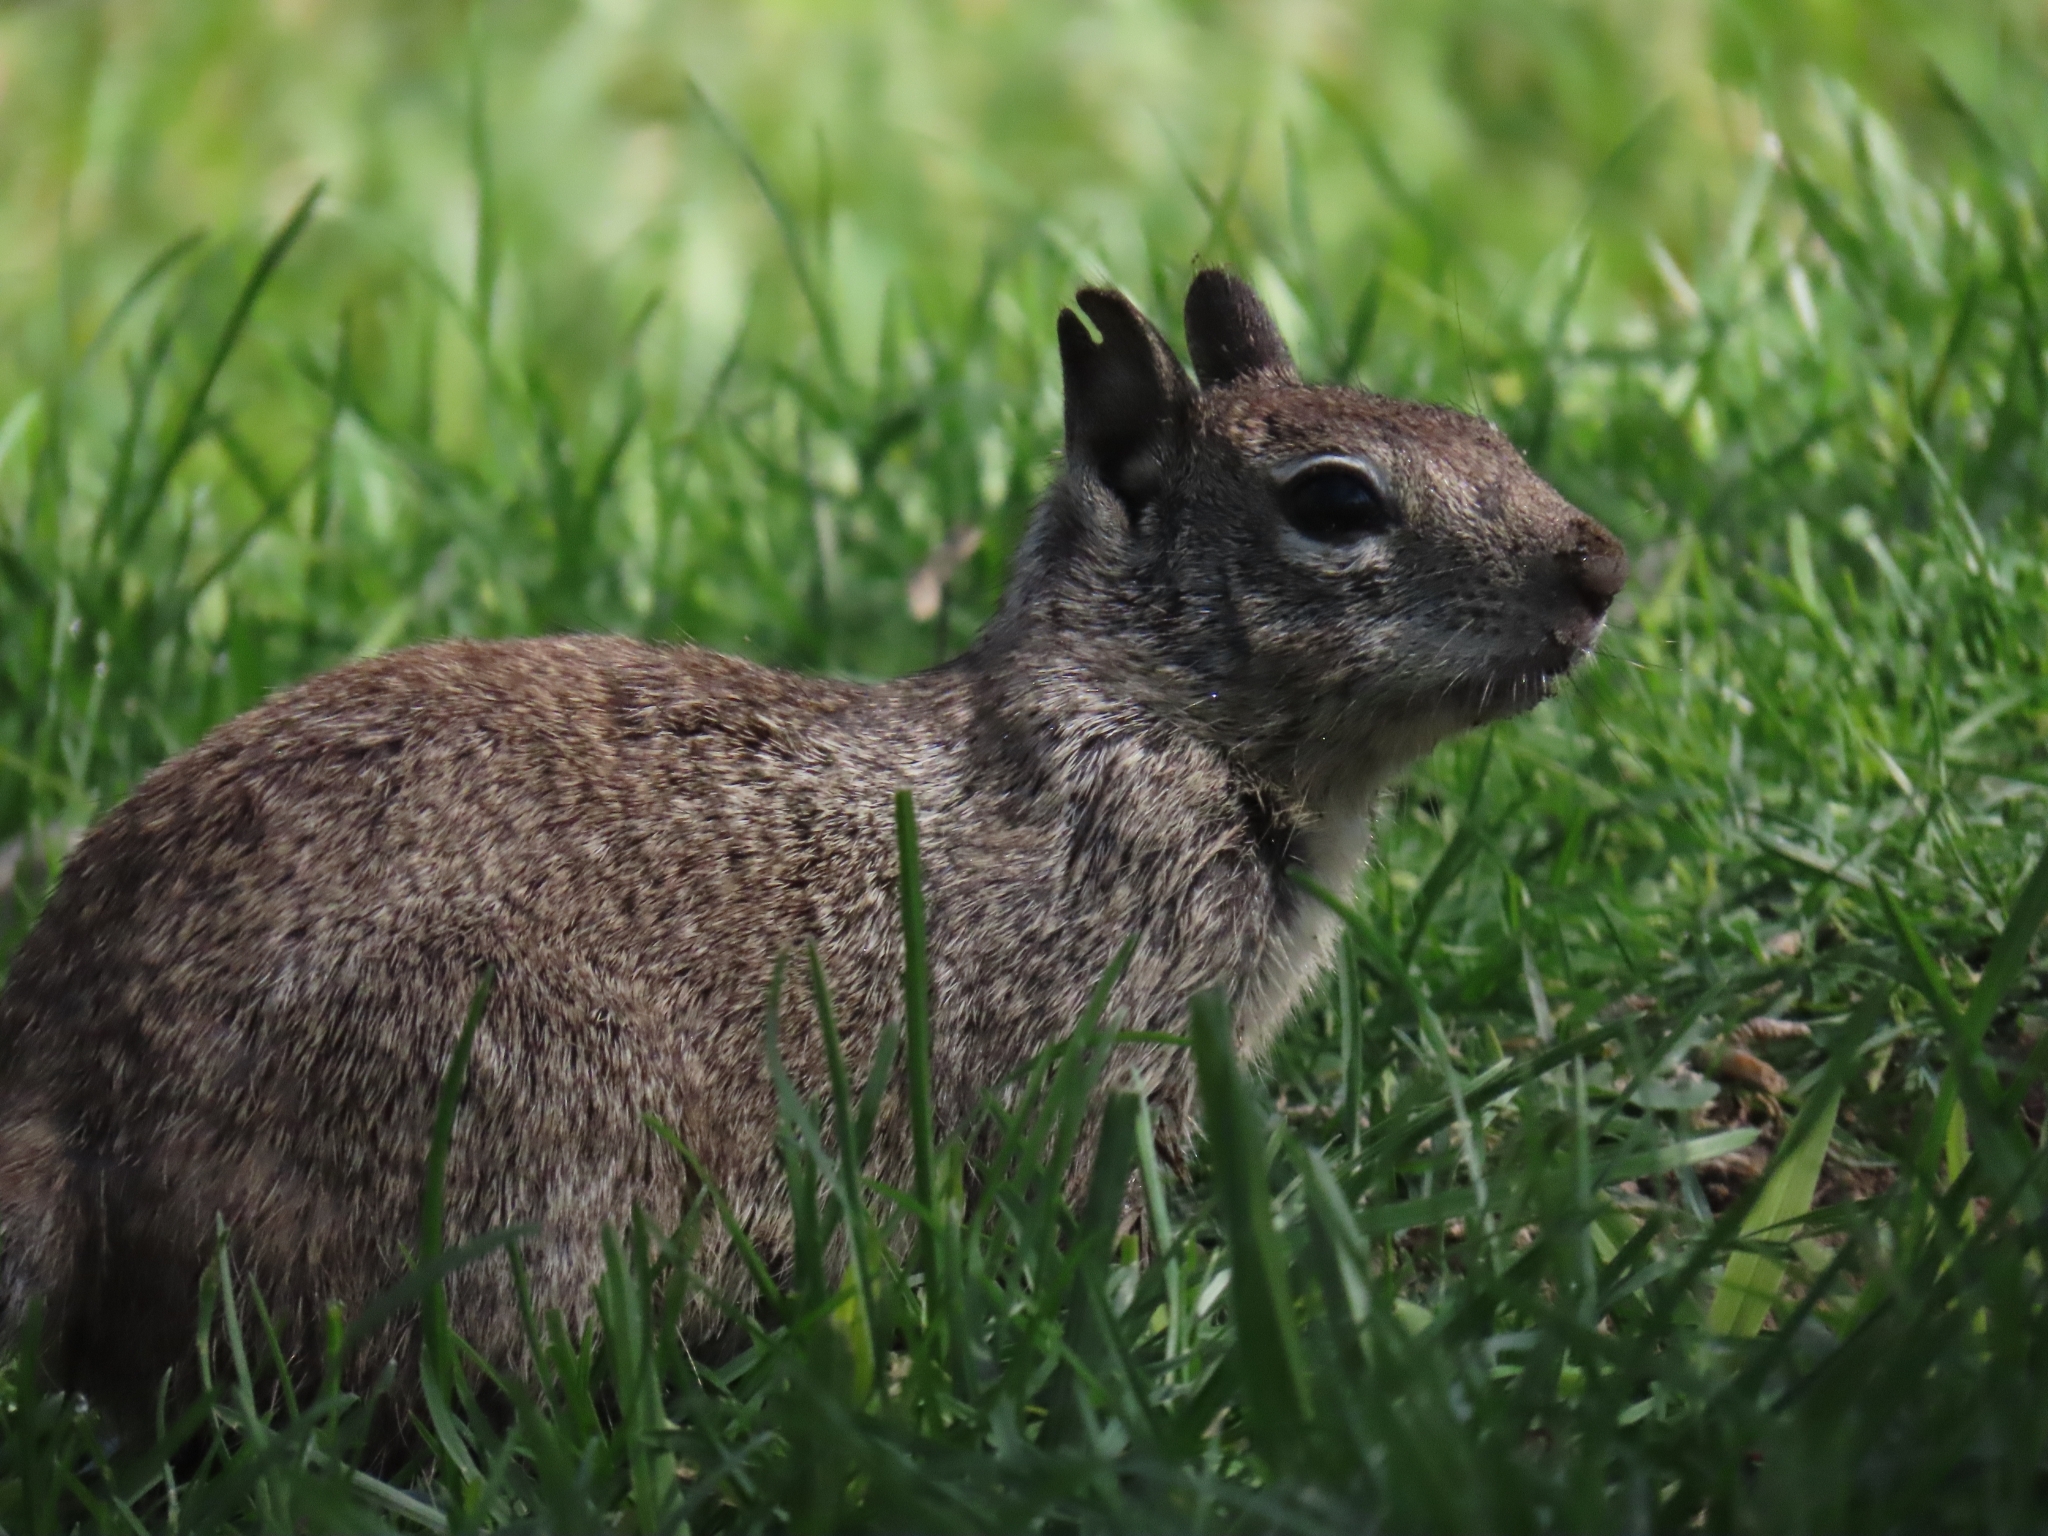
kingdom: Animalia
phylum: Chordata
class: Mammalia
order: Rodentia
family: Sciuridae
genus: Otospermophilus
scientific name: Otospermophilus beecheyi
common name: California ground squirrel
